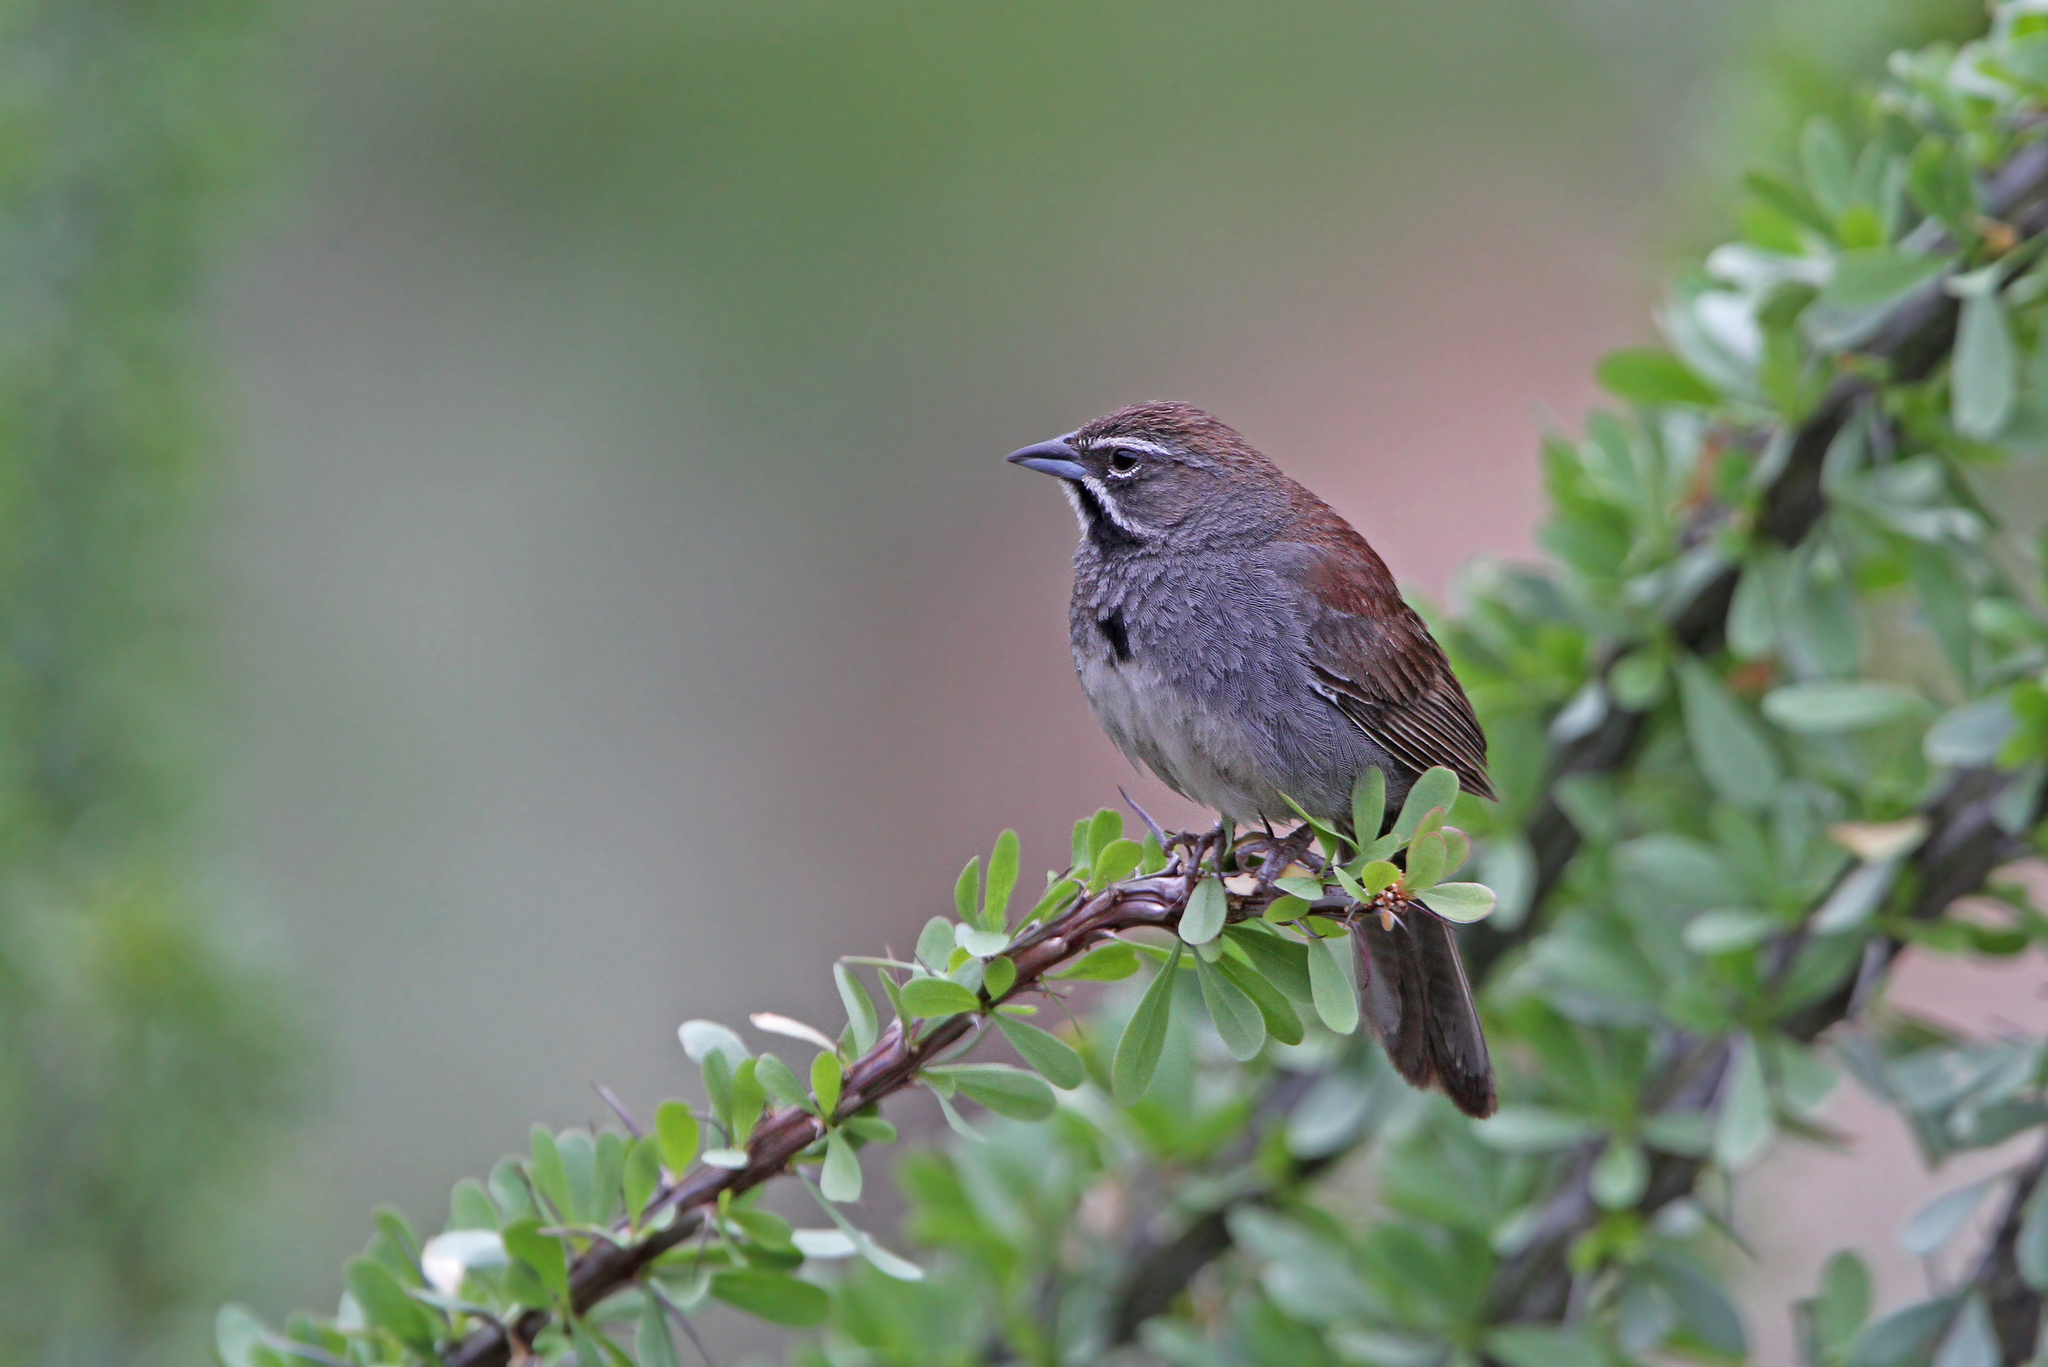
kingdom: Animalia
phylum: Chordata
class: Aves
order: Passeriformes
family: Passerellidae
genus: Amphispizopsis
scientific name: Amphispizopsis quinquestriata
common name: Five-striped sparrow
